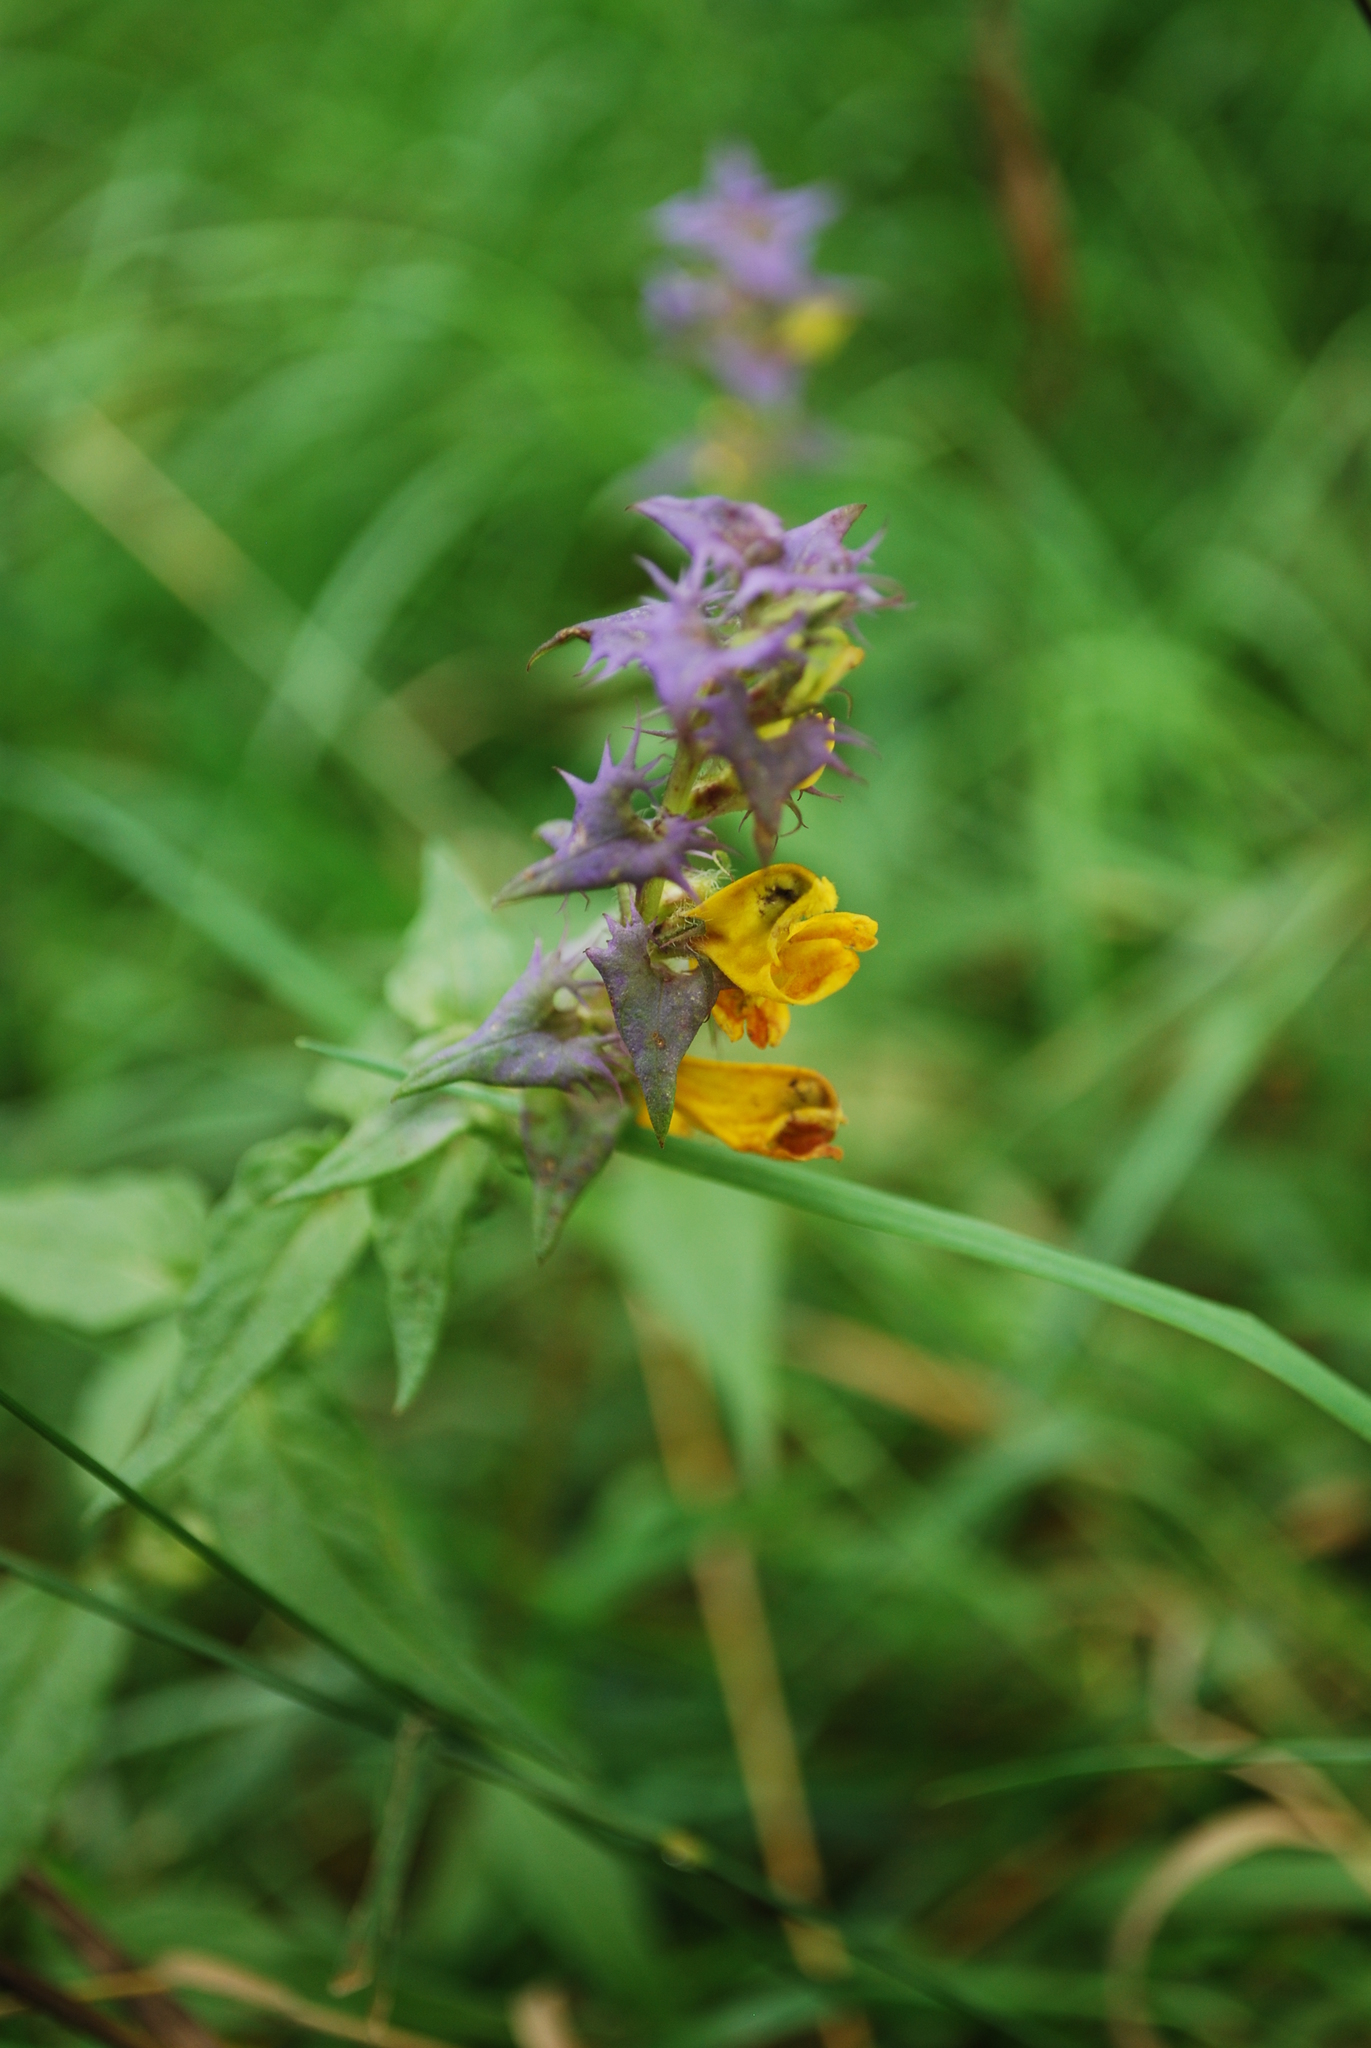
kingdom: Plantae
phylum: Tracheophyta
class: Magnoliopsida
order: Lamiales
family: Orobanchaceae
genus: Melampyrum
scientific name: Melampyrum nemorosum
